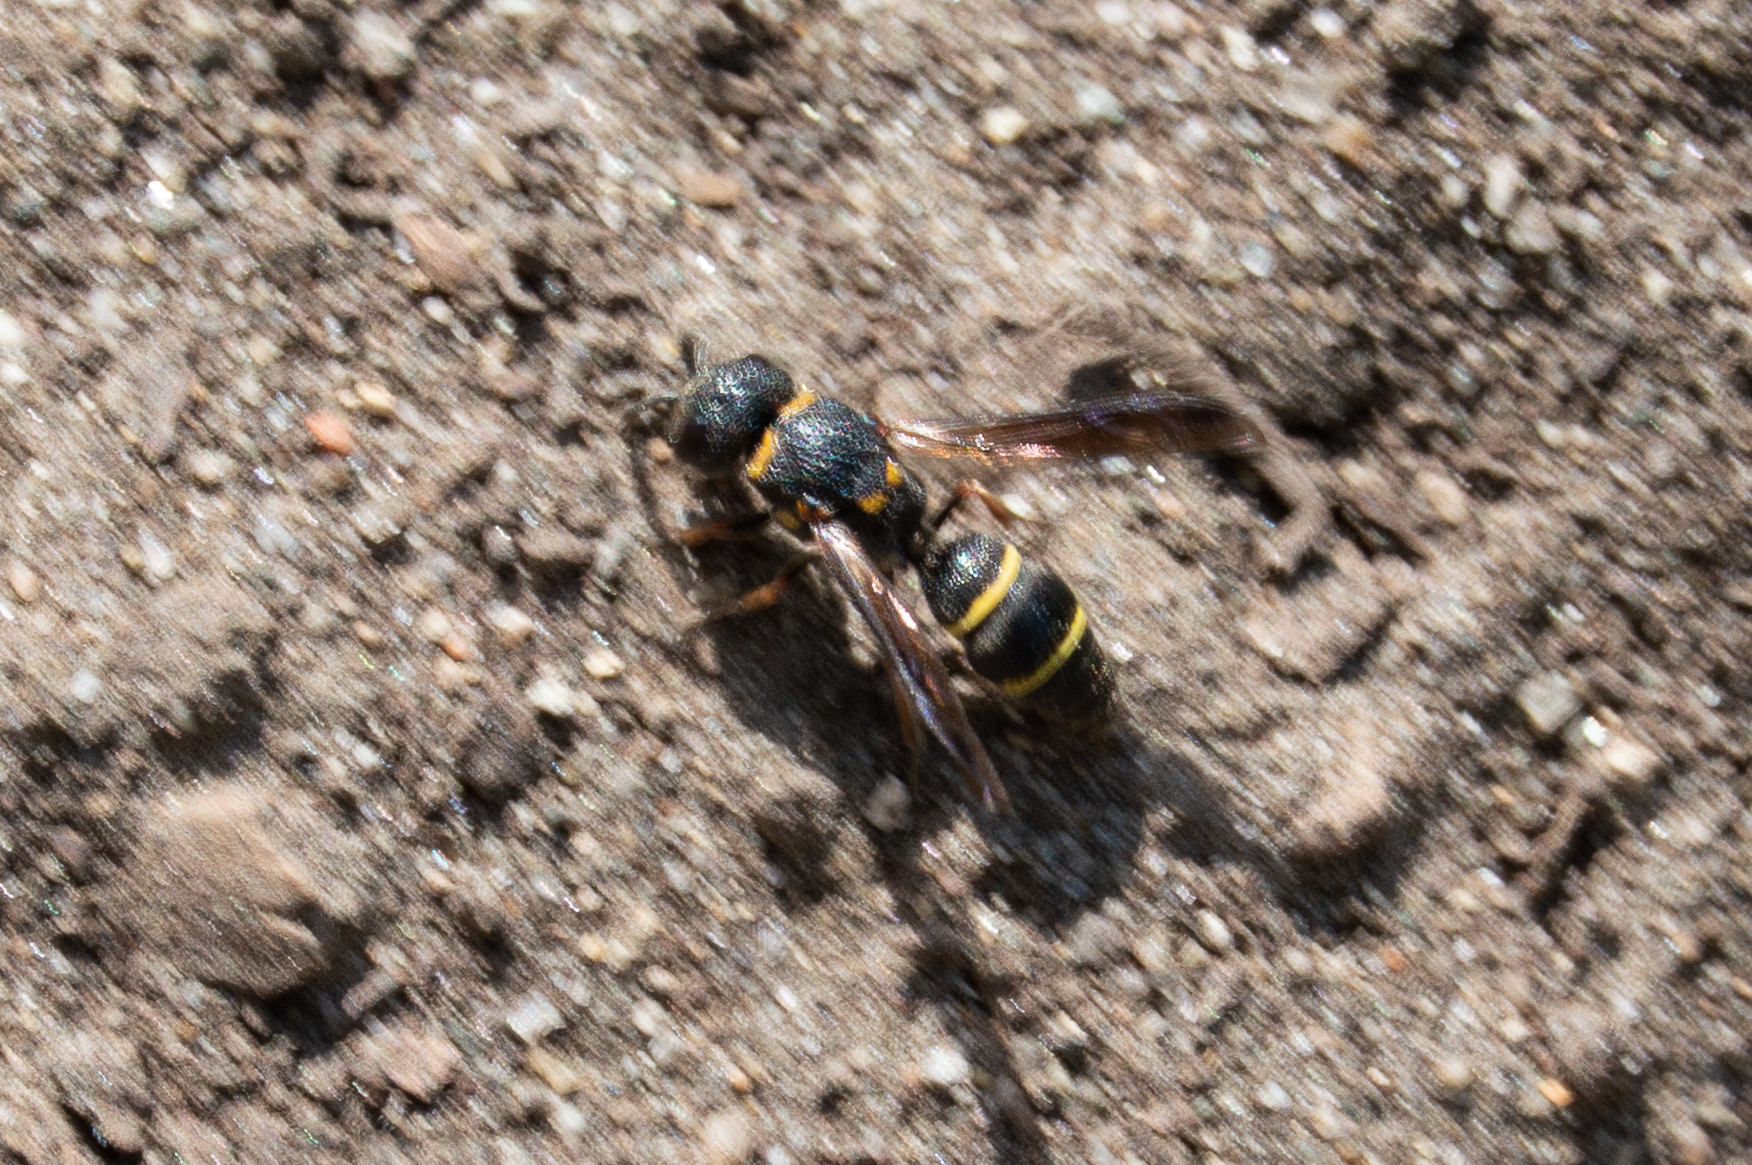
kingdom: Animalia
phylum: Arthropoda
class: Insecta
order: Hymenoptera
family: Eumenidae
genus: Cyrtolabulus
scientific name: Cyrtolabulus mutinensis
